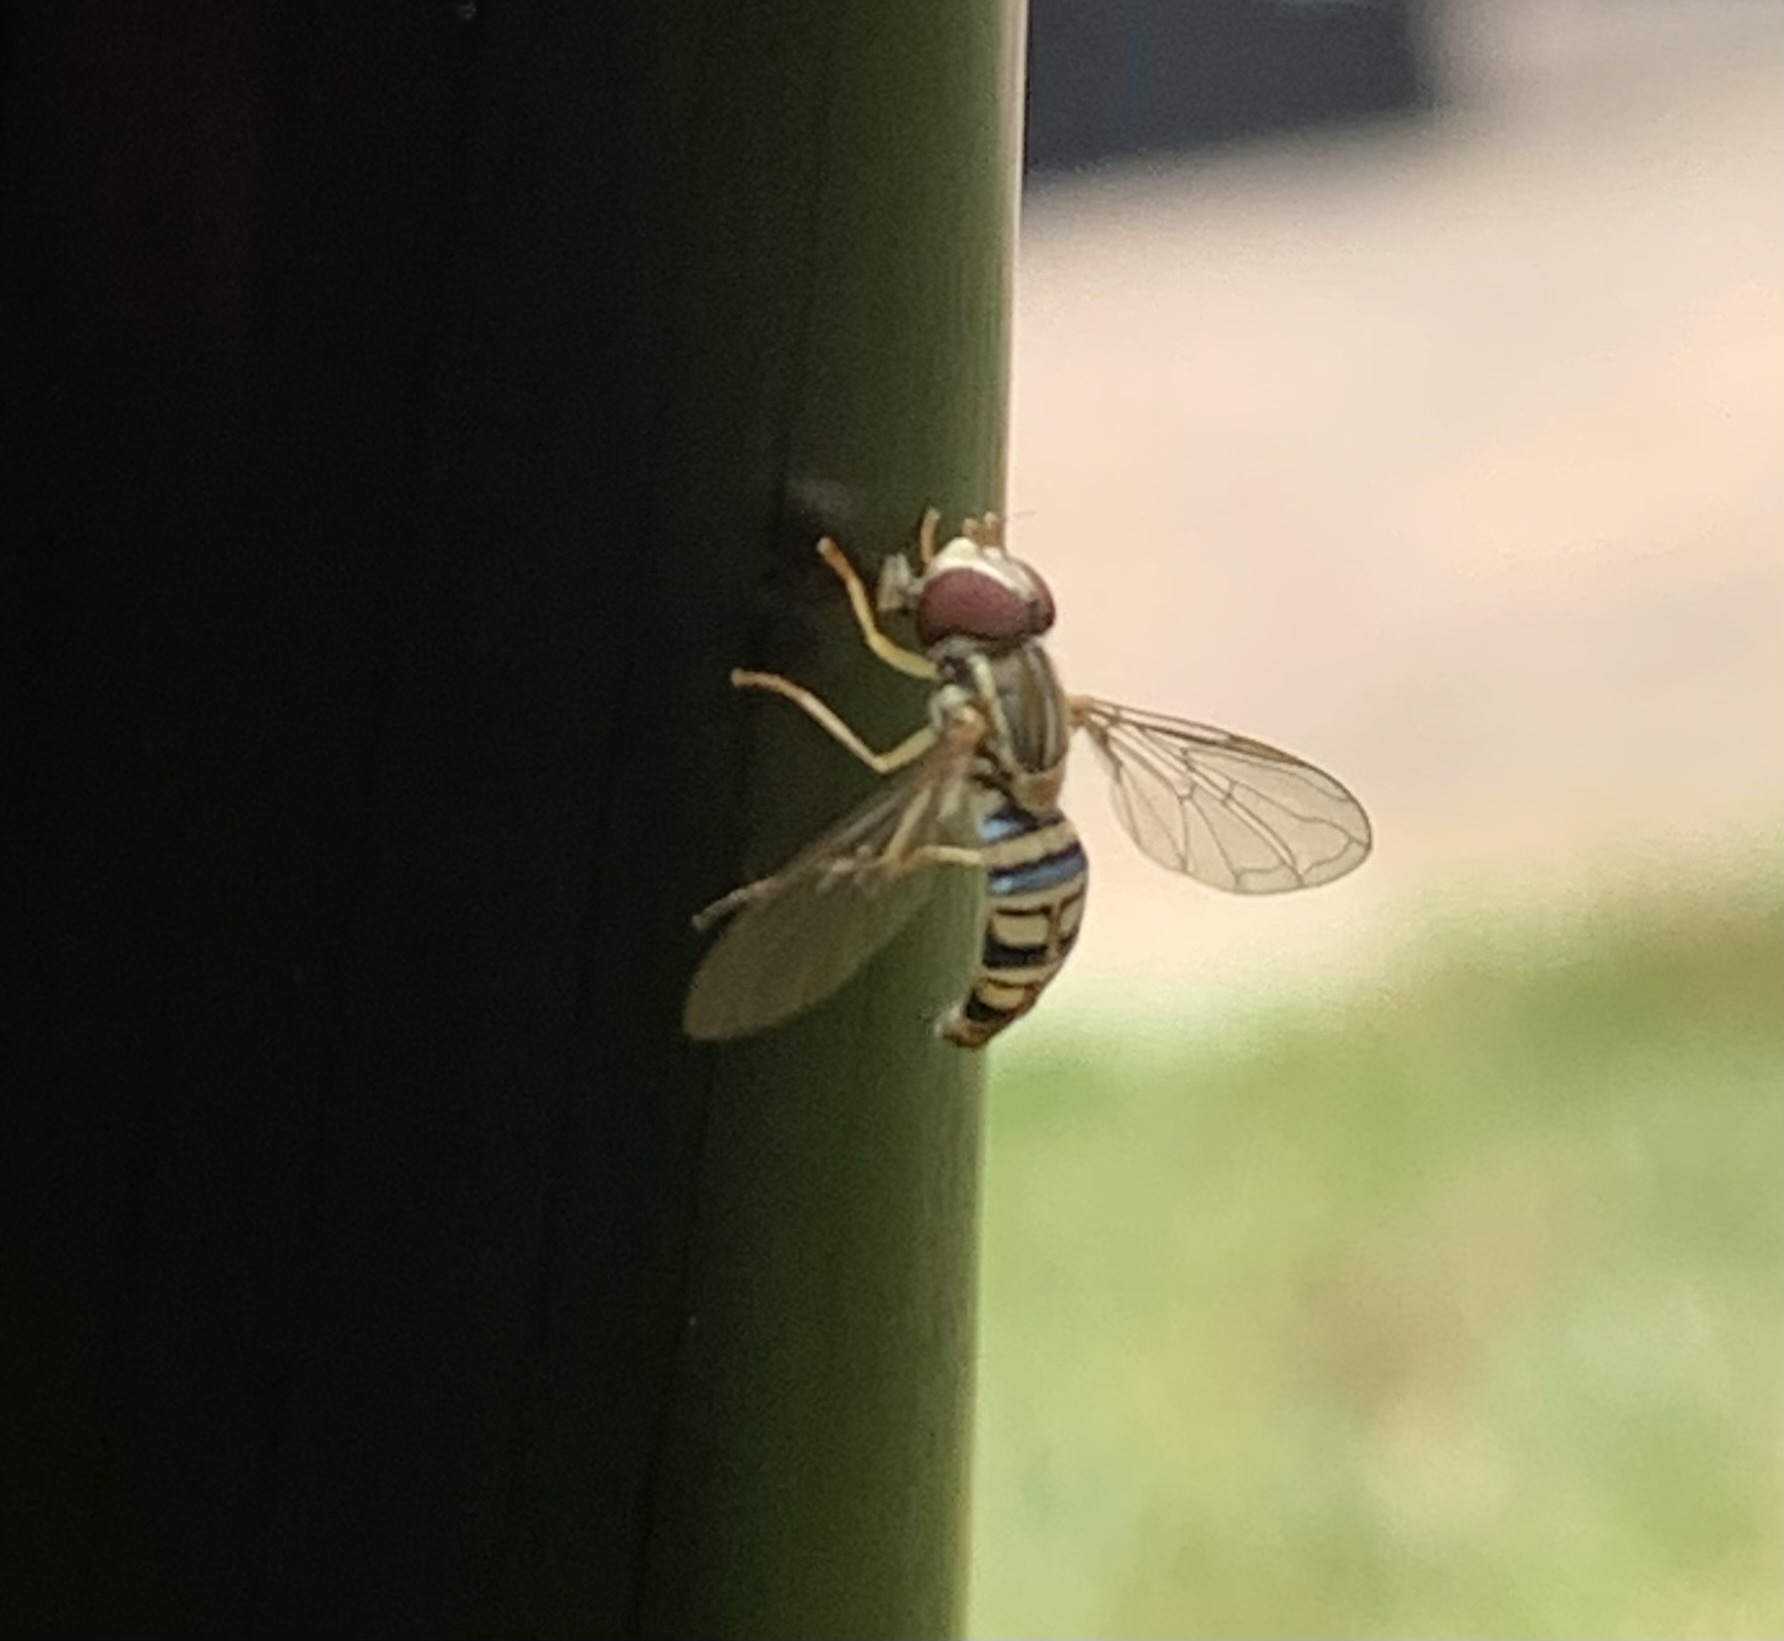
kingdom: Animalia
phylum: Arthropoda
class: Insecta
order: Diptera
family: Syrphidae
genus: Toxomerus
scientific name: Toxomerus politus
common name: Maize calligrapher
